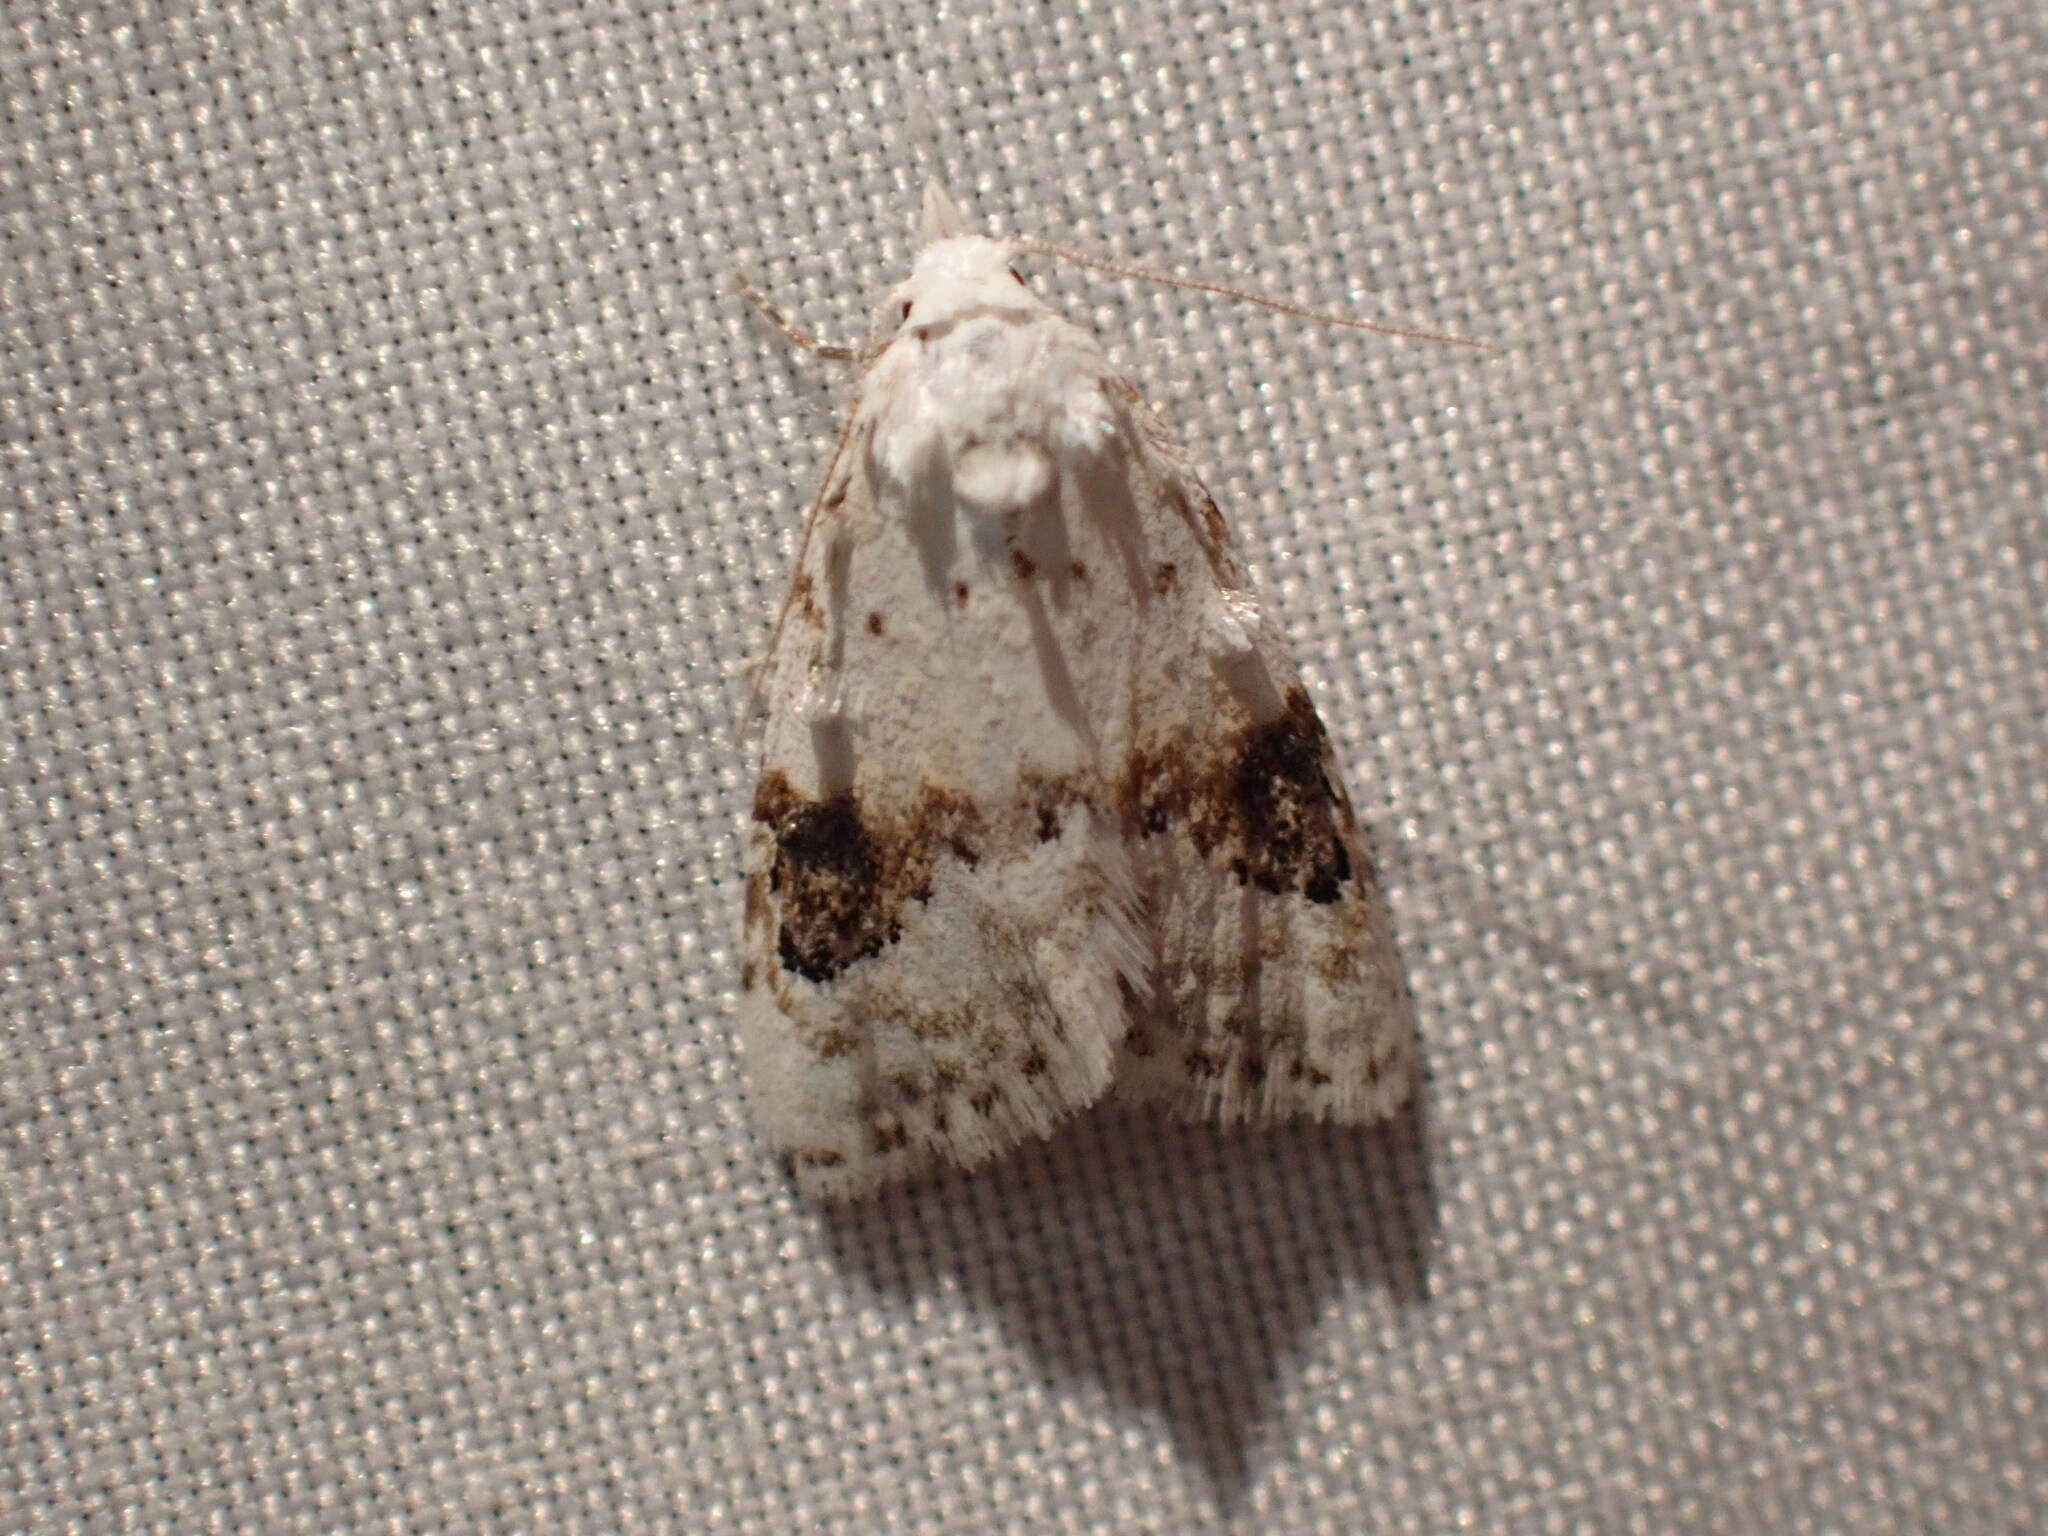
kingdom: Animalia
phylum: Arthropoda
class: Insecta
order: Lepidoptera
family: Nolidae
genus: Nola
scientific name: Nola cilicoides
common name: Blurry-patched nola moth
